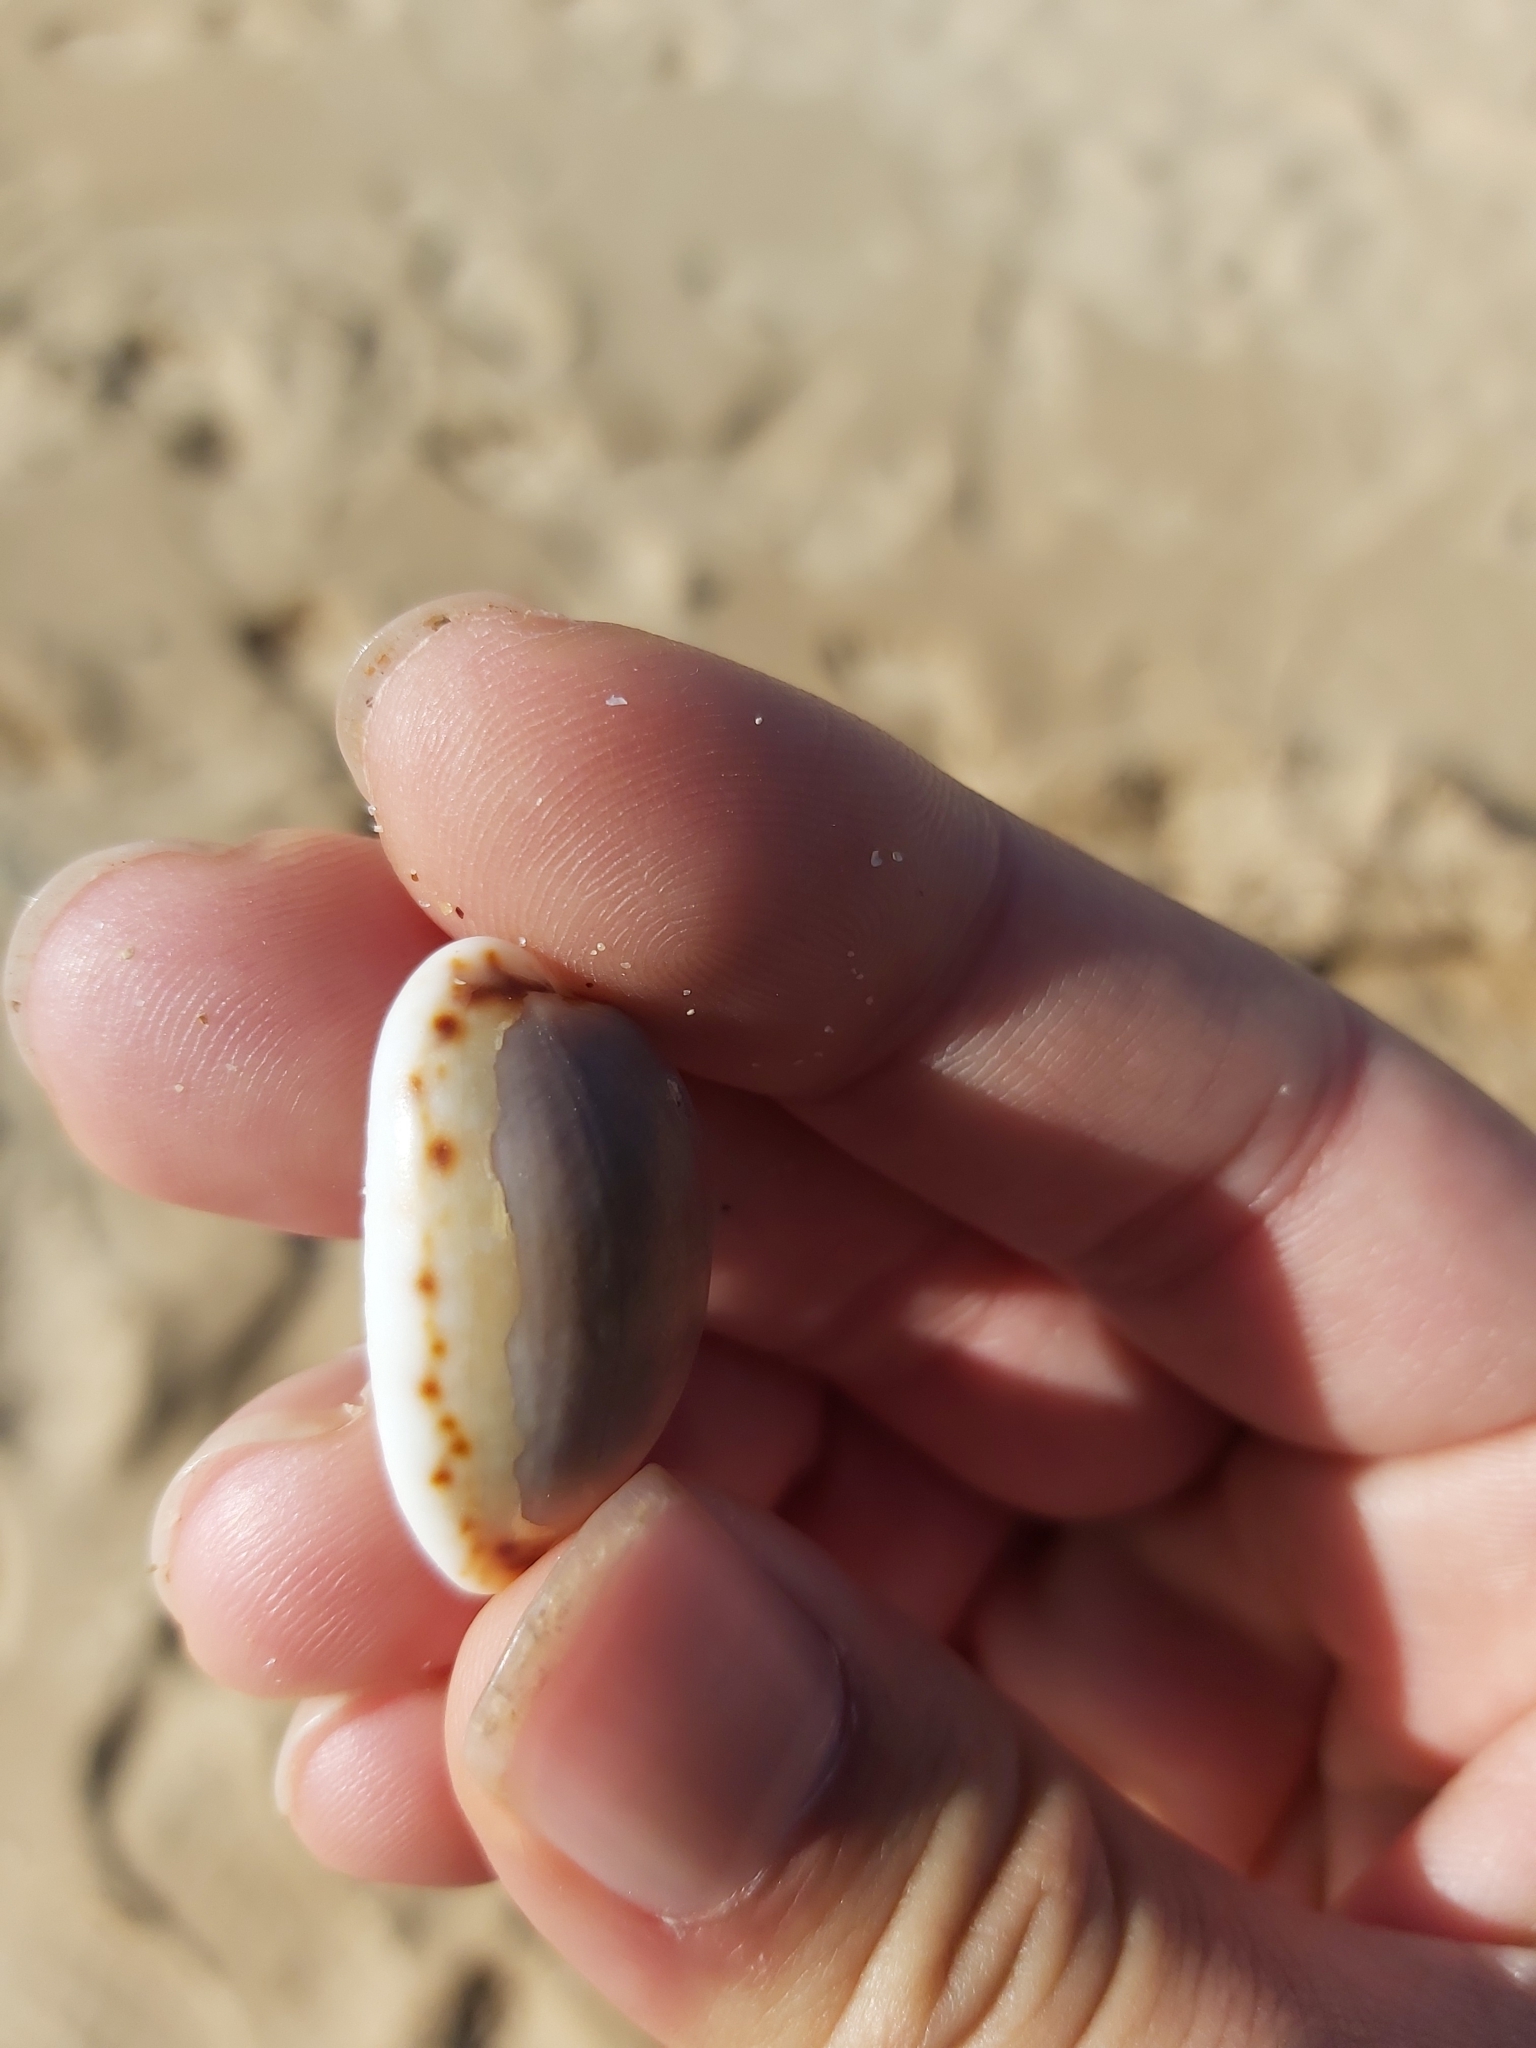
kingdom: Animalia
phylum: Mollusca
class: Gastropoda
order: Littorinimorpha
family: Cypraeidae
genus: Naria
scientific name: Naria labrolineata
